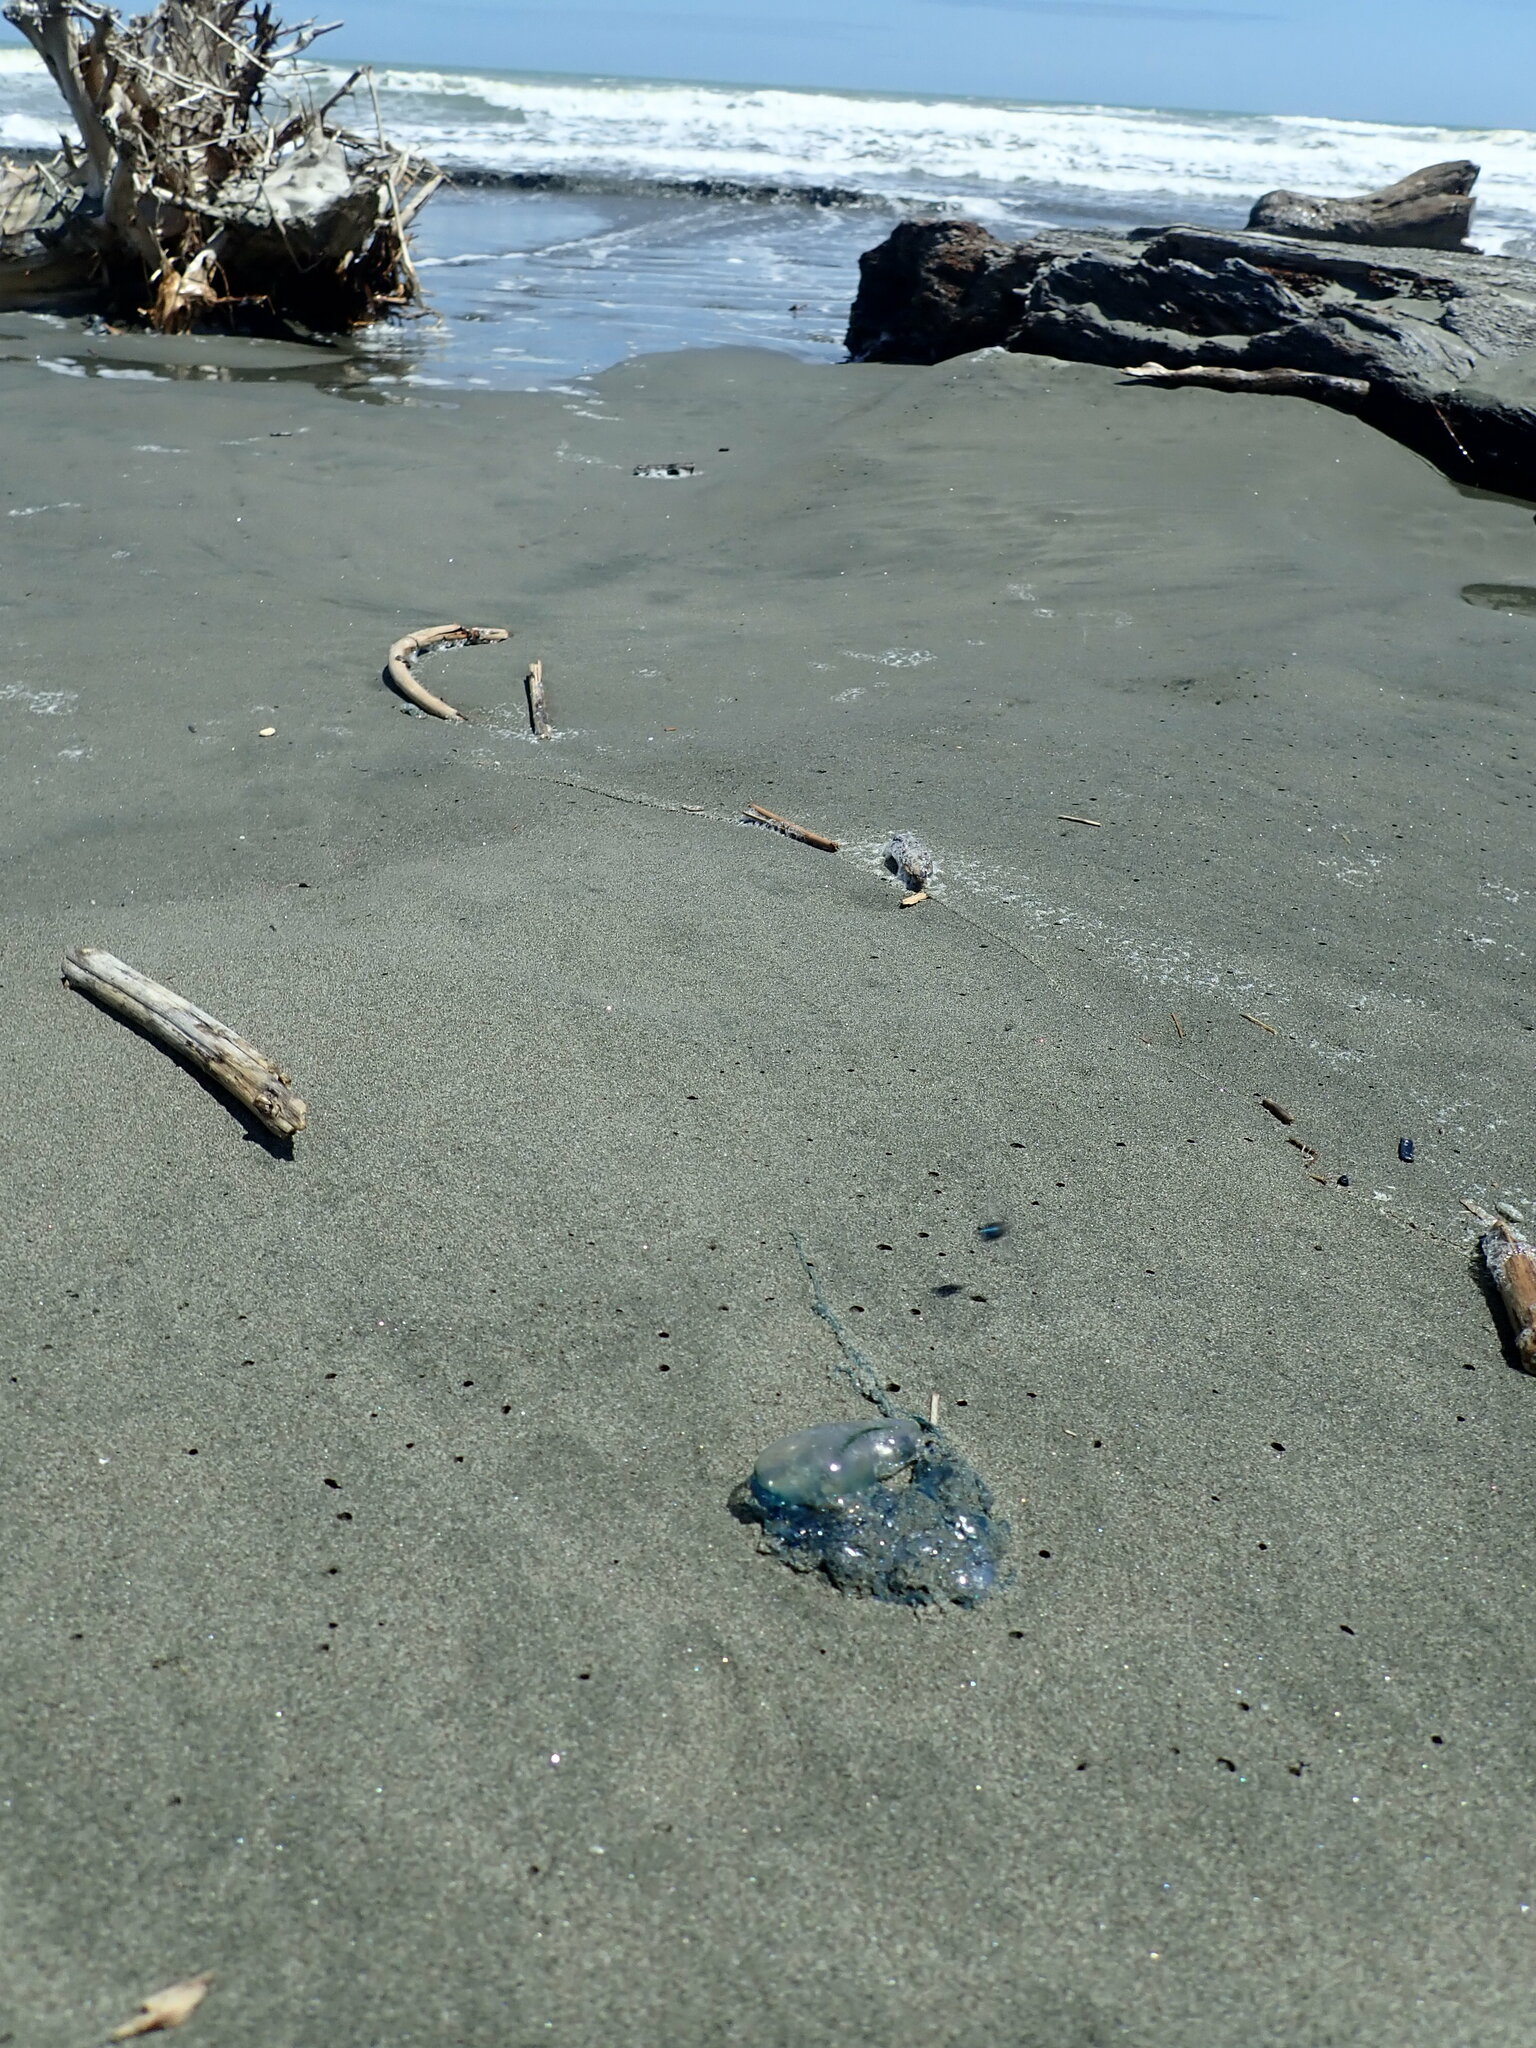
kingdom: Animalia
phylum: Cnidaria
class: Hydrozoa
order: Siphonophorae
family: Physaliidae
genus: Physalia
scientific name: Physalia physalis
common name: Portuguese man-of-war
